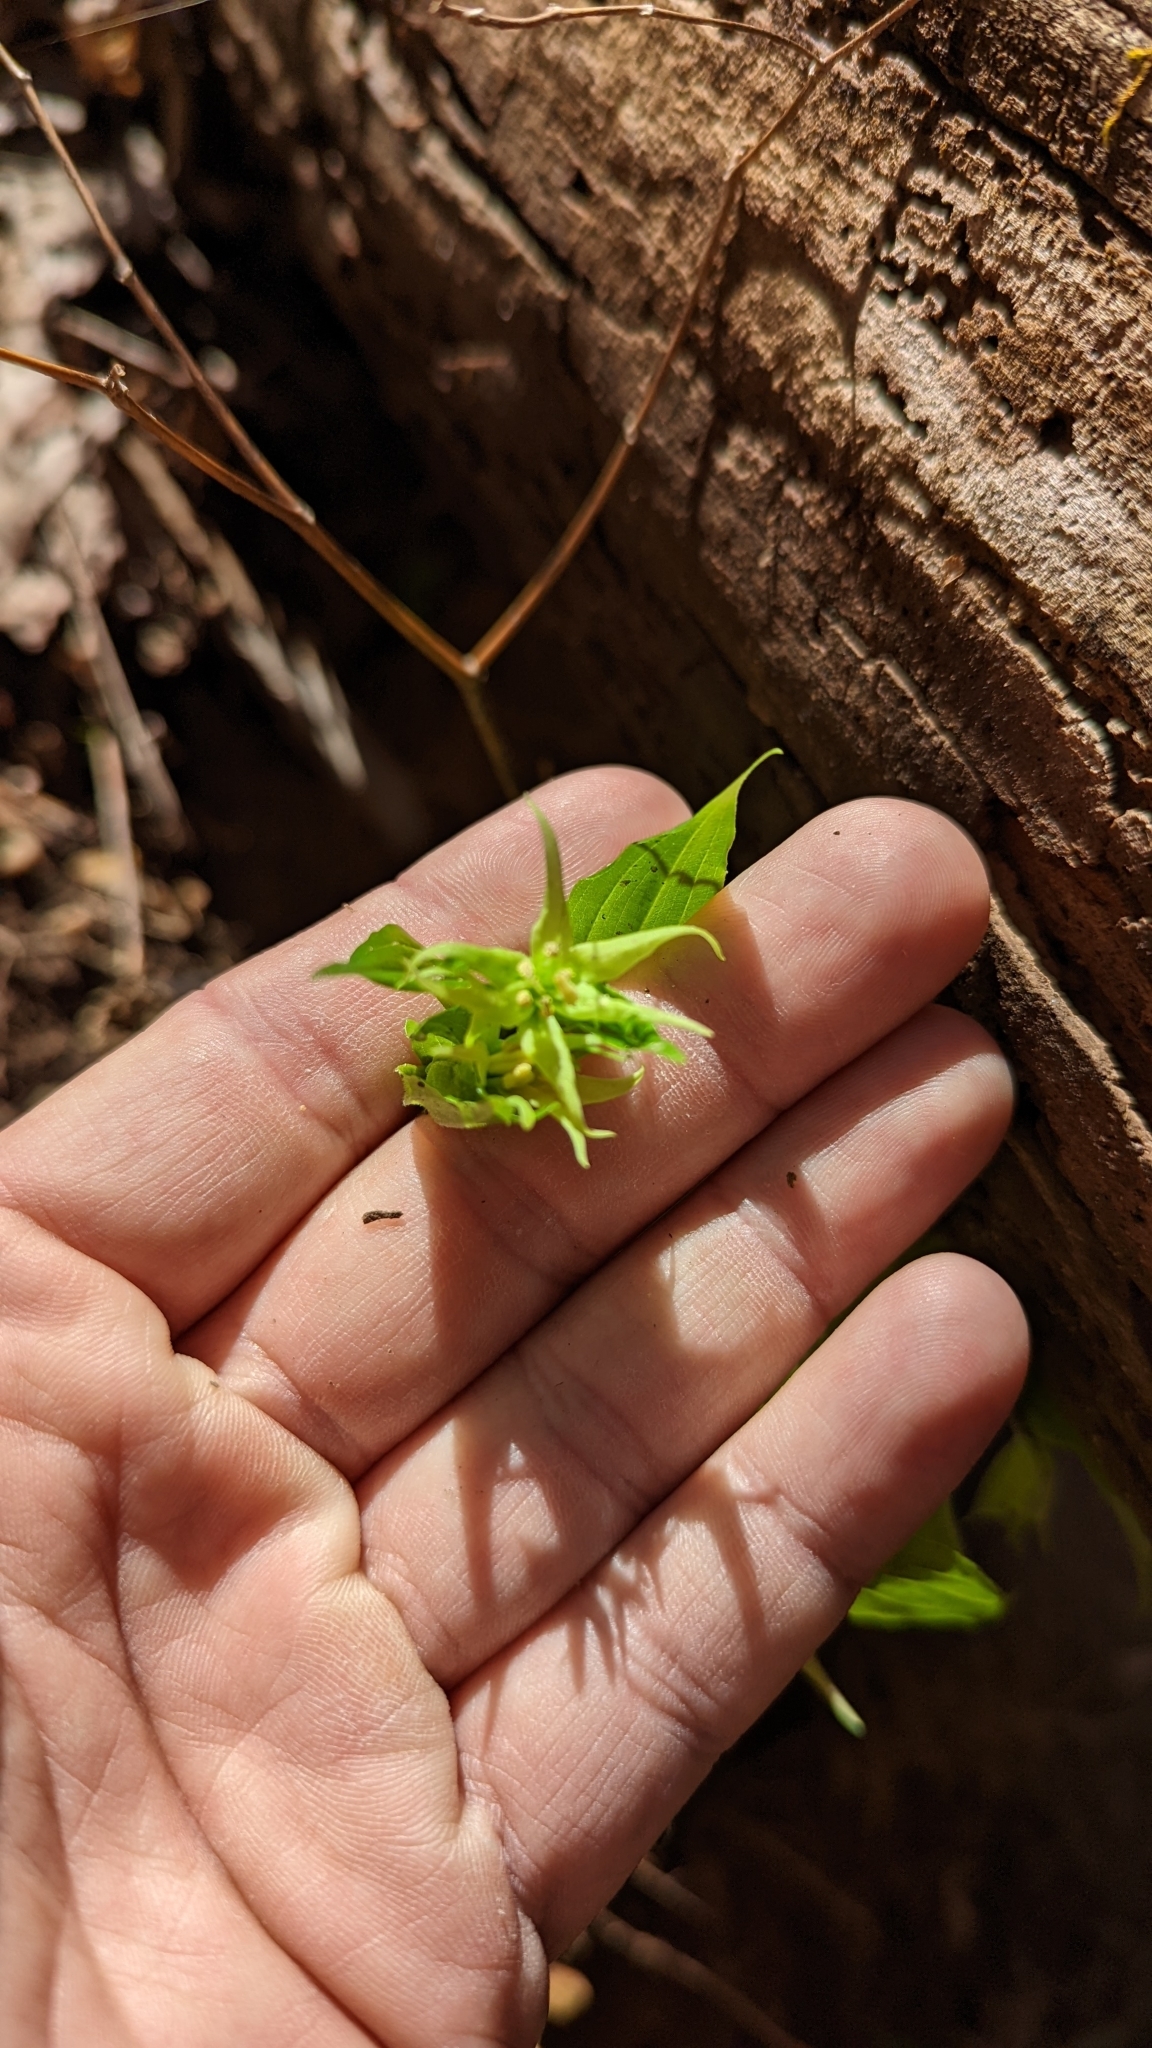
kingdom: Plantae
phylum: Tracheophyta
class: Liliopsida
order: Liliales
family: Liliaceae
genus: Prosartes
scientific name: Prosartes lanuginosa
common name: Hairy mandarin
